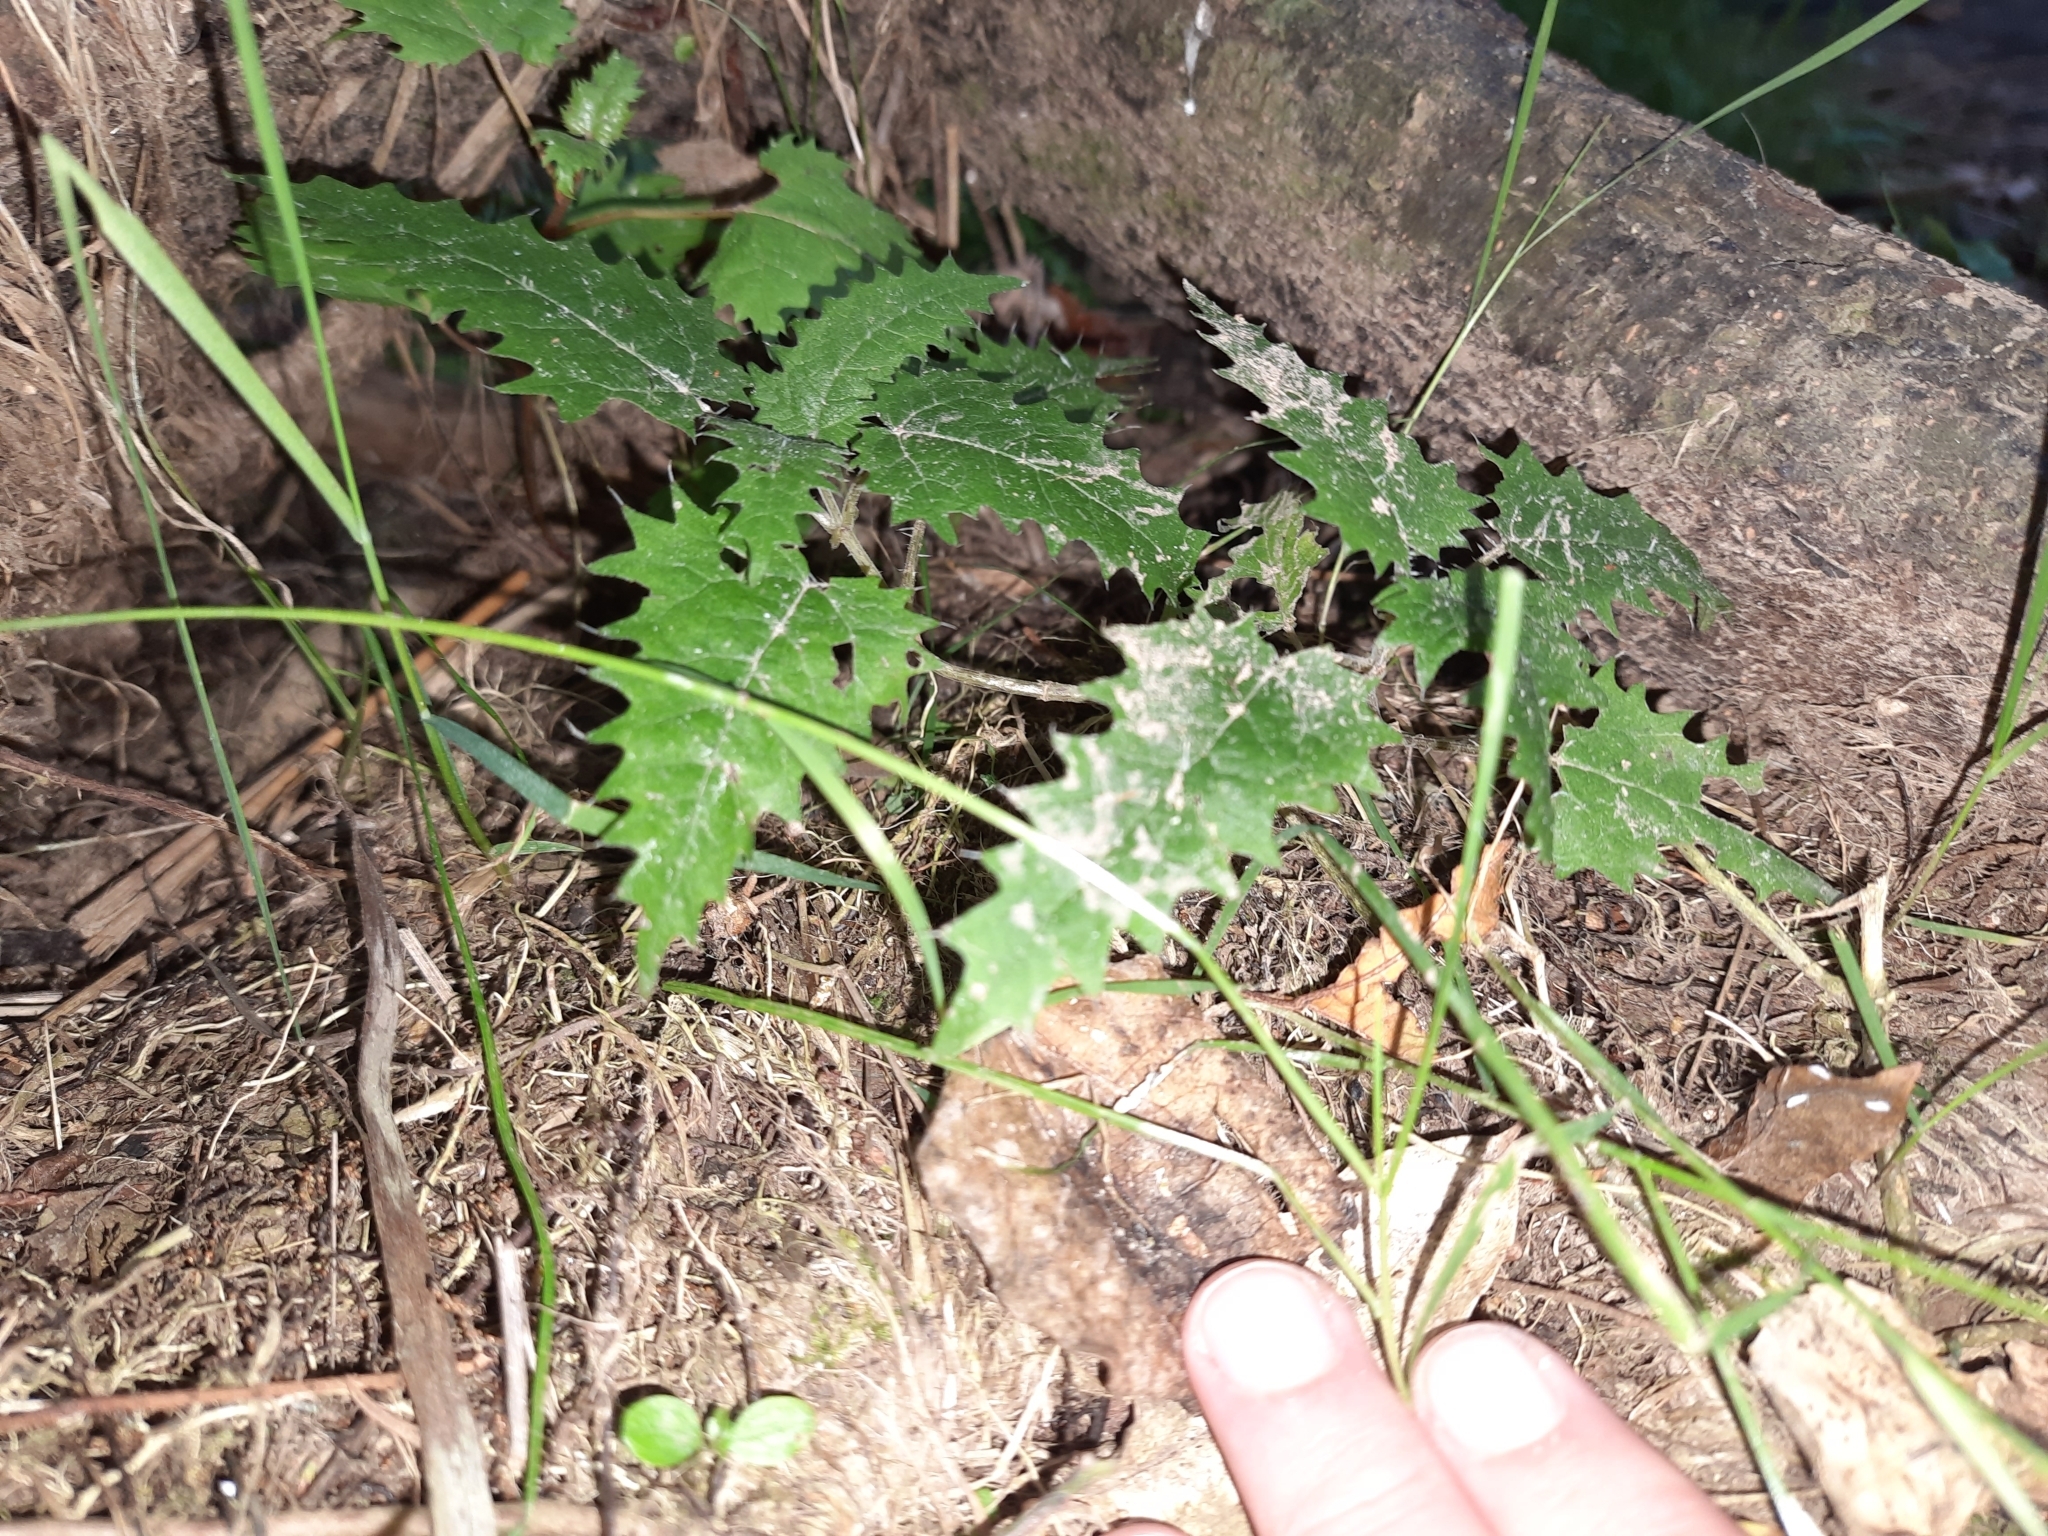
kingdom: Plantae
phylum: Tracheophyta
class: Magnoliopsida
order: Rosales
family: Urticaceae
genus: Urtica
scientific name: Urtica ferox
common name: Tree nettle
